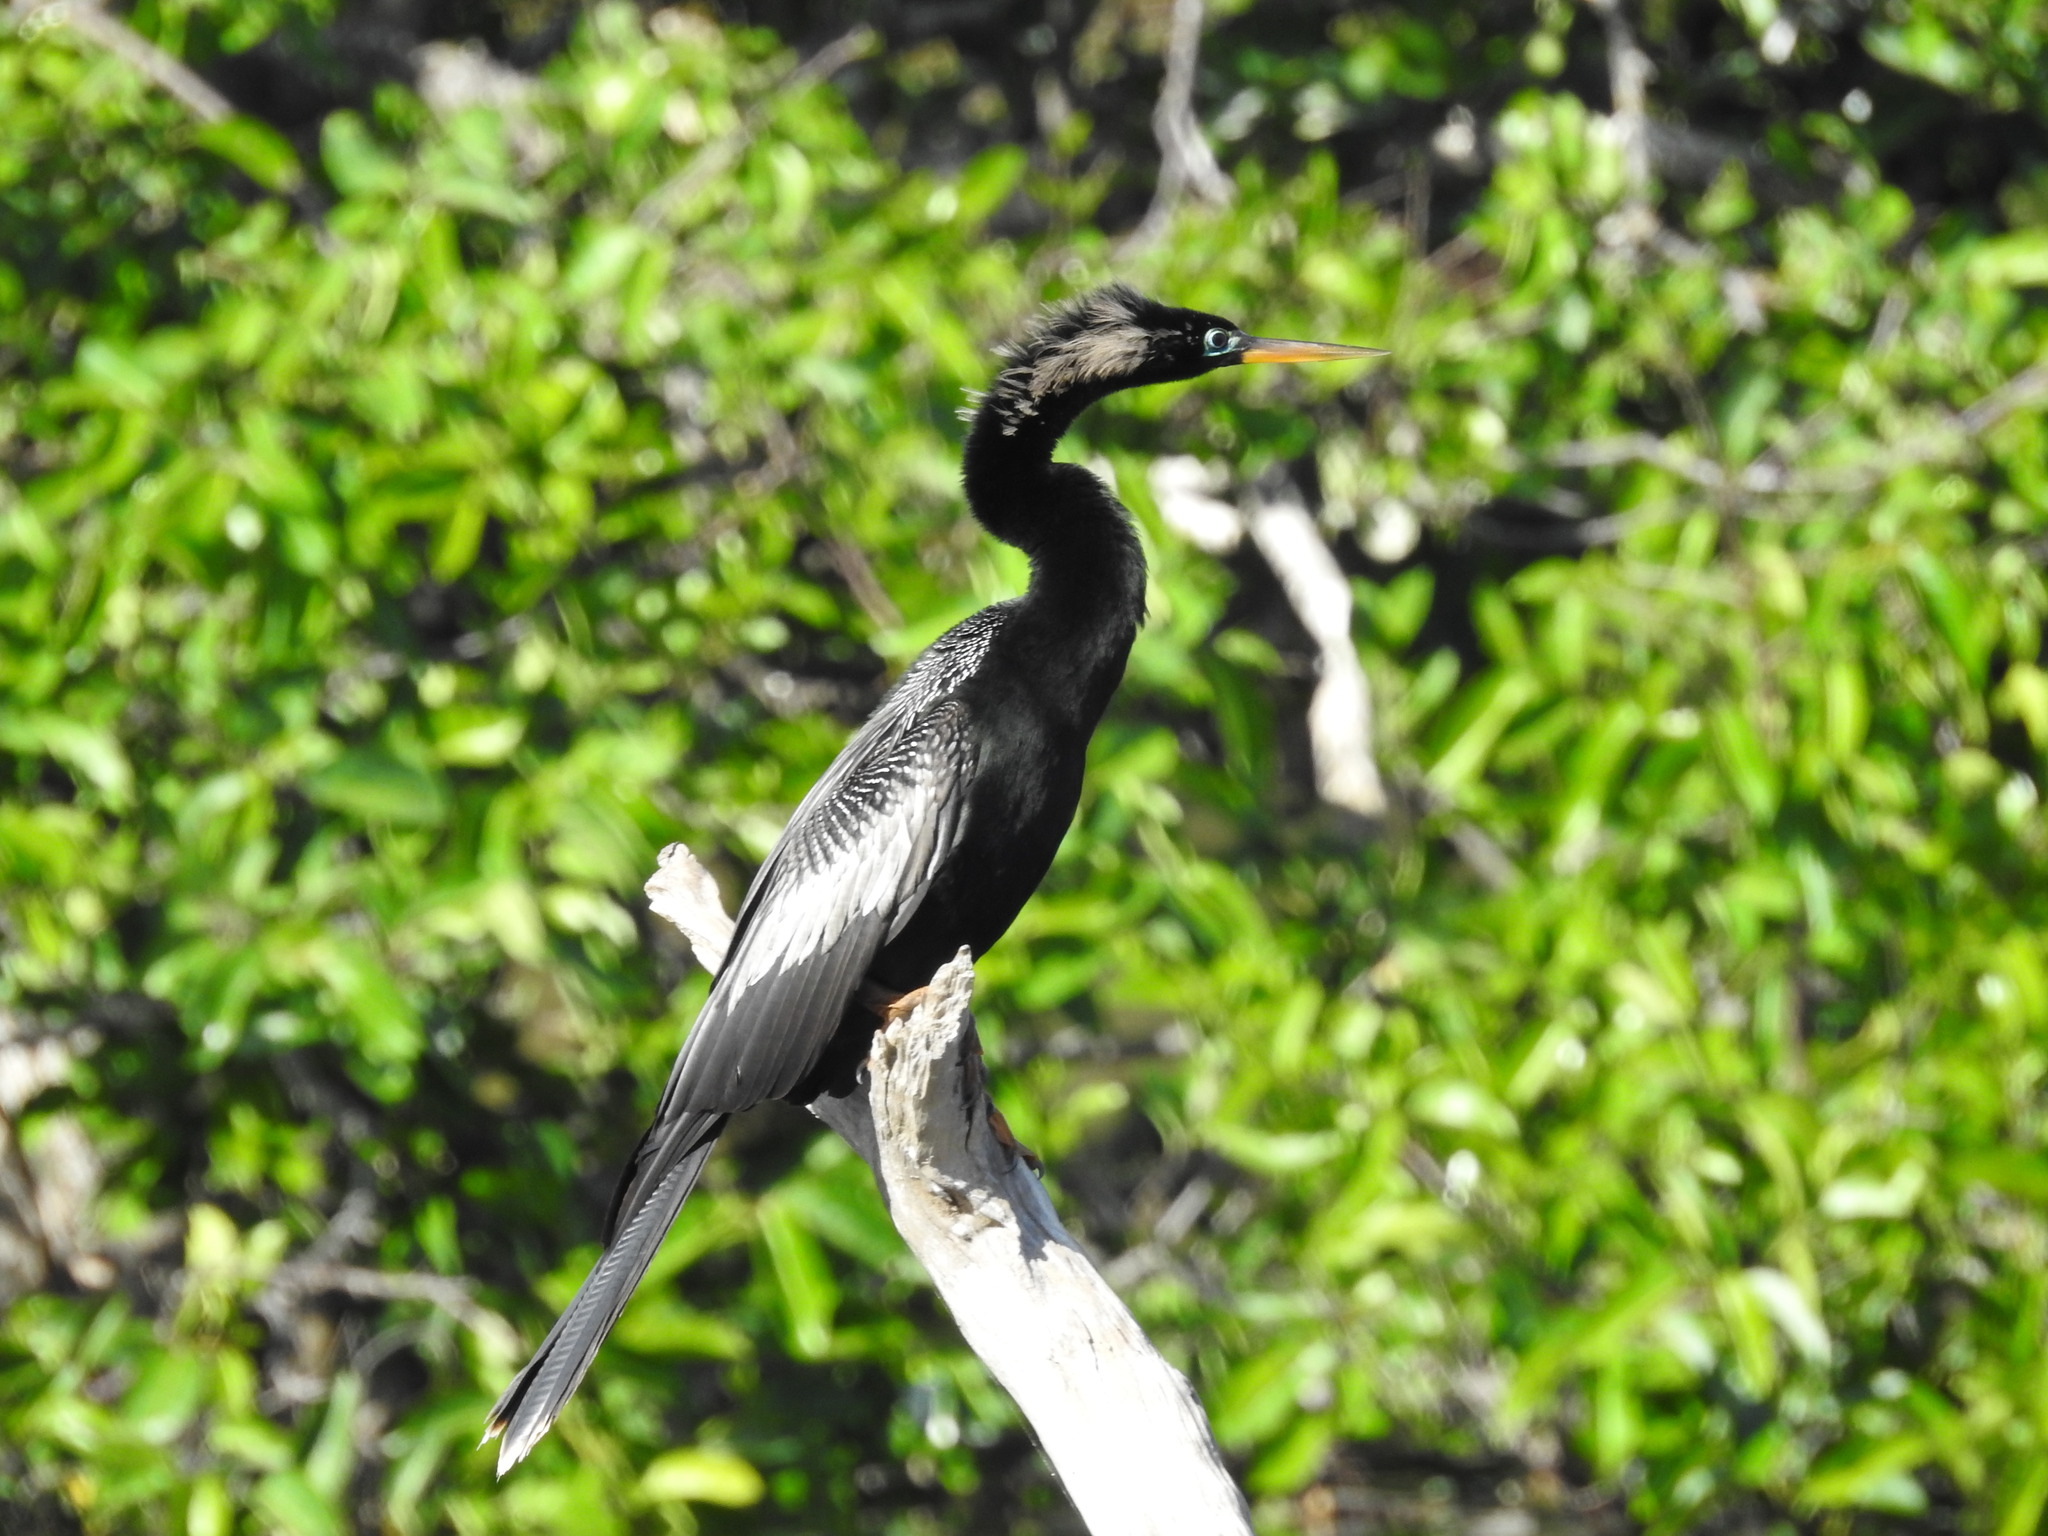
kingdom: Animalia
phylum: Chordata
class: Aves
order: Suliformes
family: Anhingidae
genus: Anhinga
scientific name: Anhinga anhinga
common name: Anhinga
